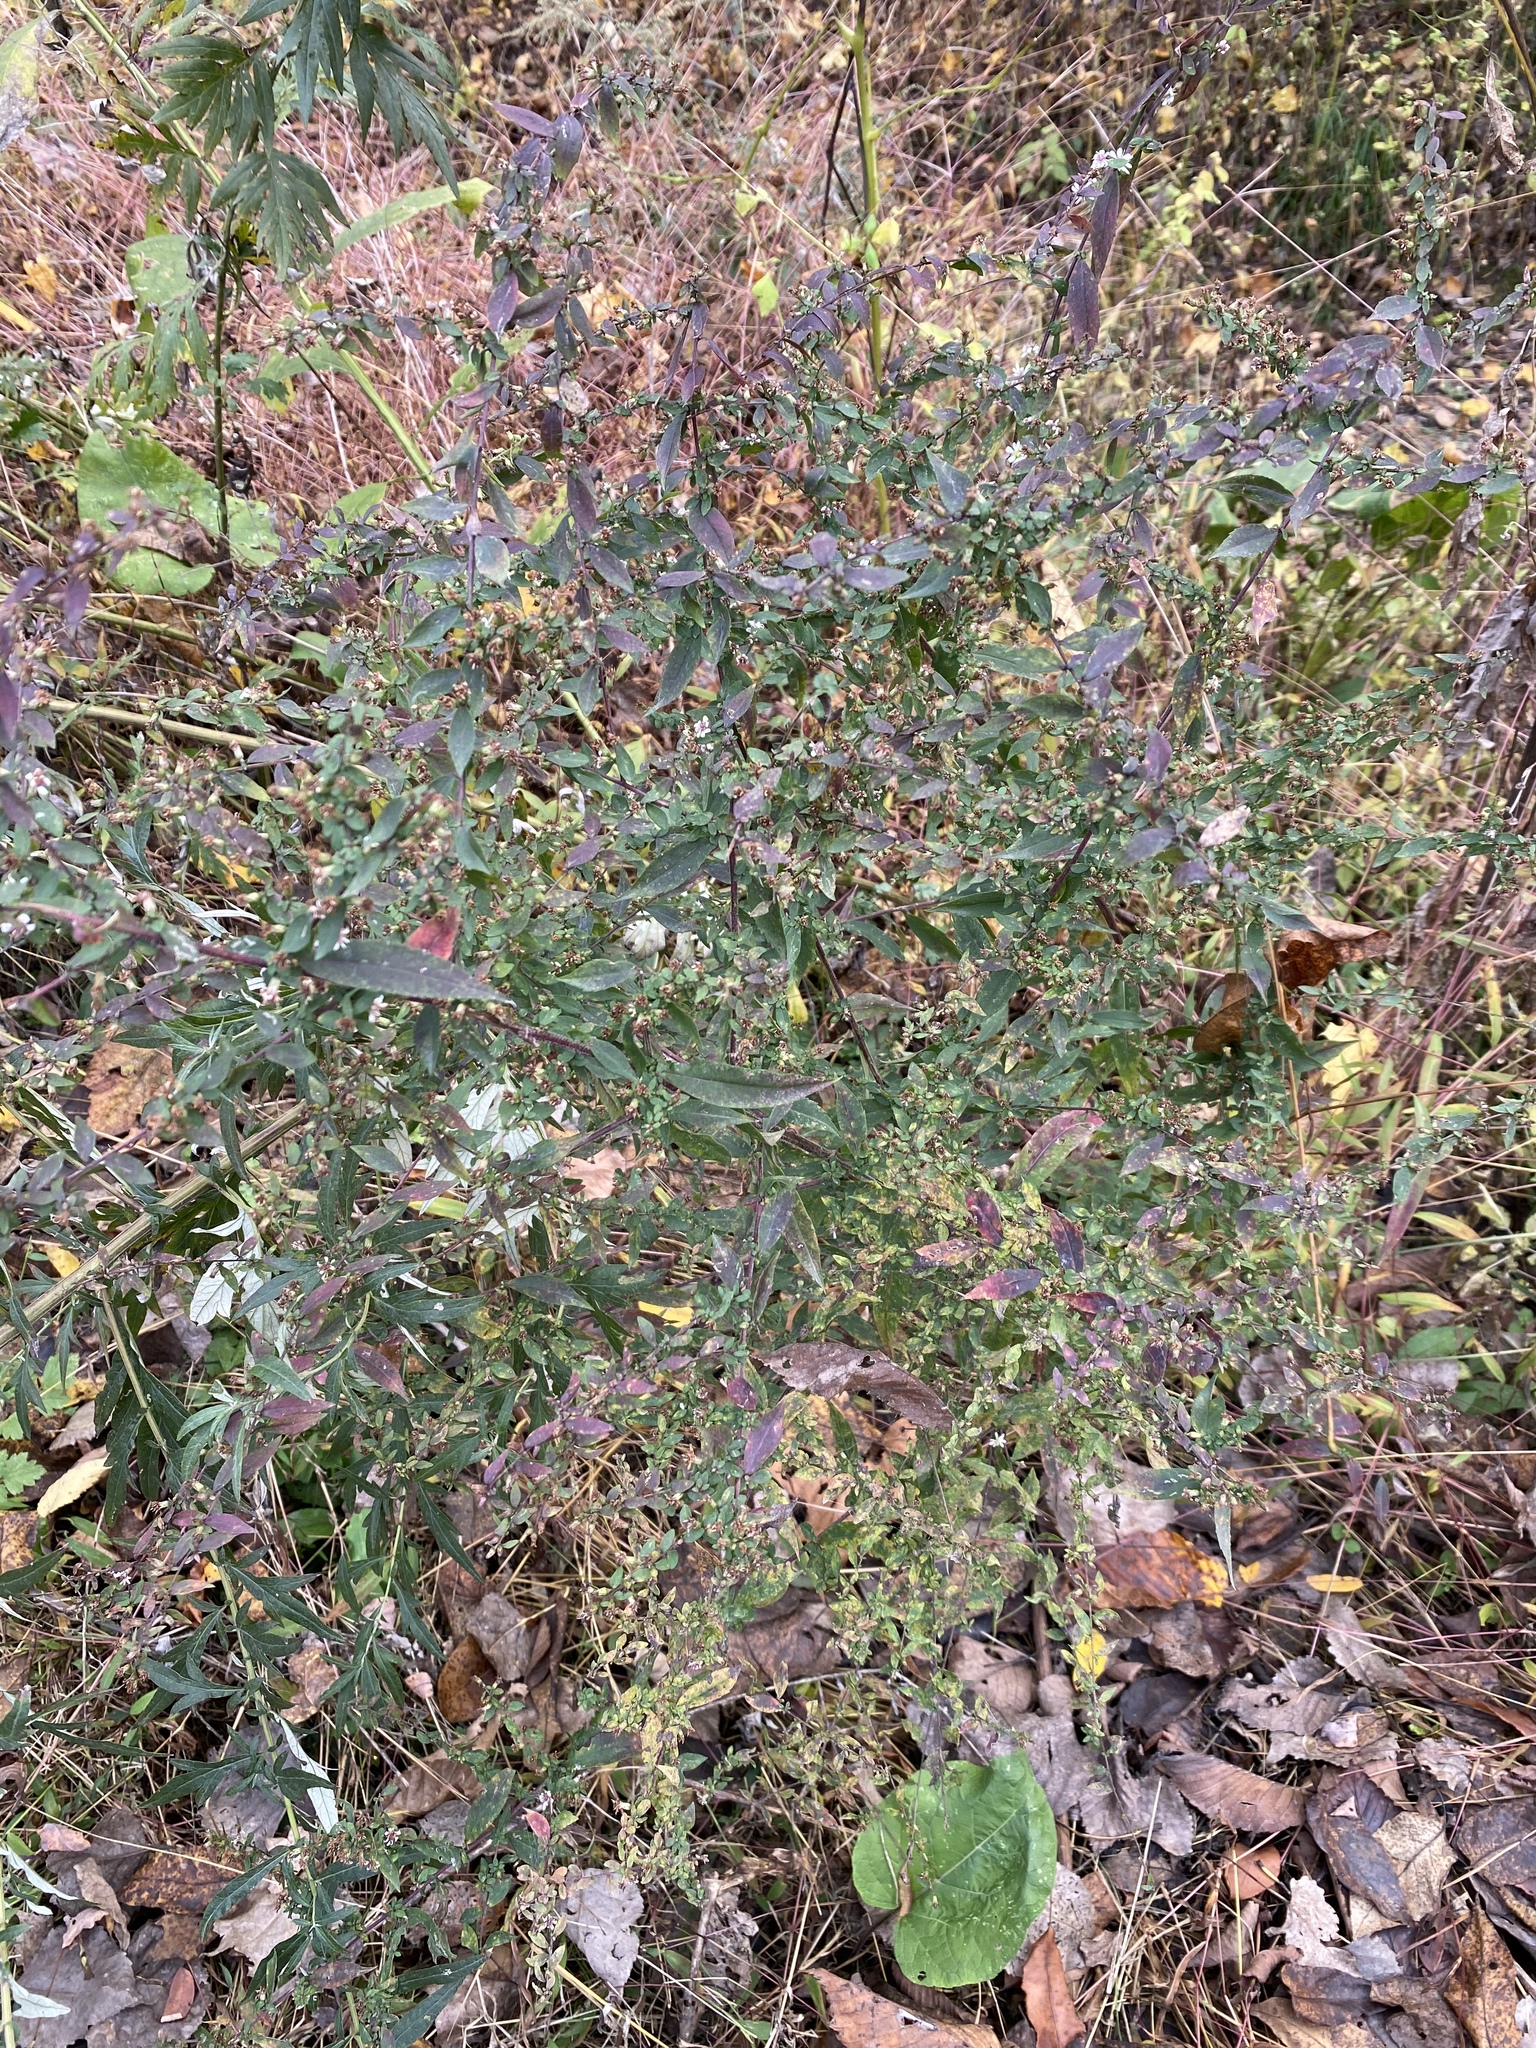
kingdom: Plantae
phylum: Tracheophyta
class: Magnoliopsida
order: Asterales
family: Asteraceae
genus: Symphyotrichum
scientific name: Symphyotrichum lateriflorum
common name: Calico aster
